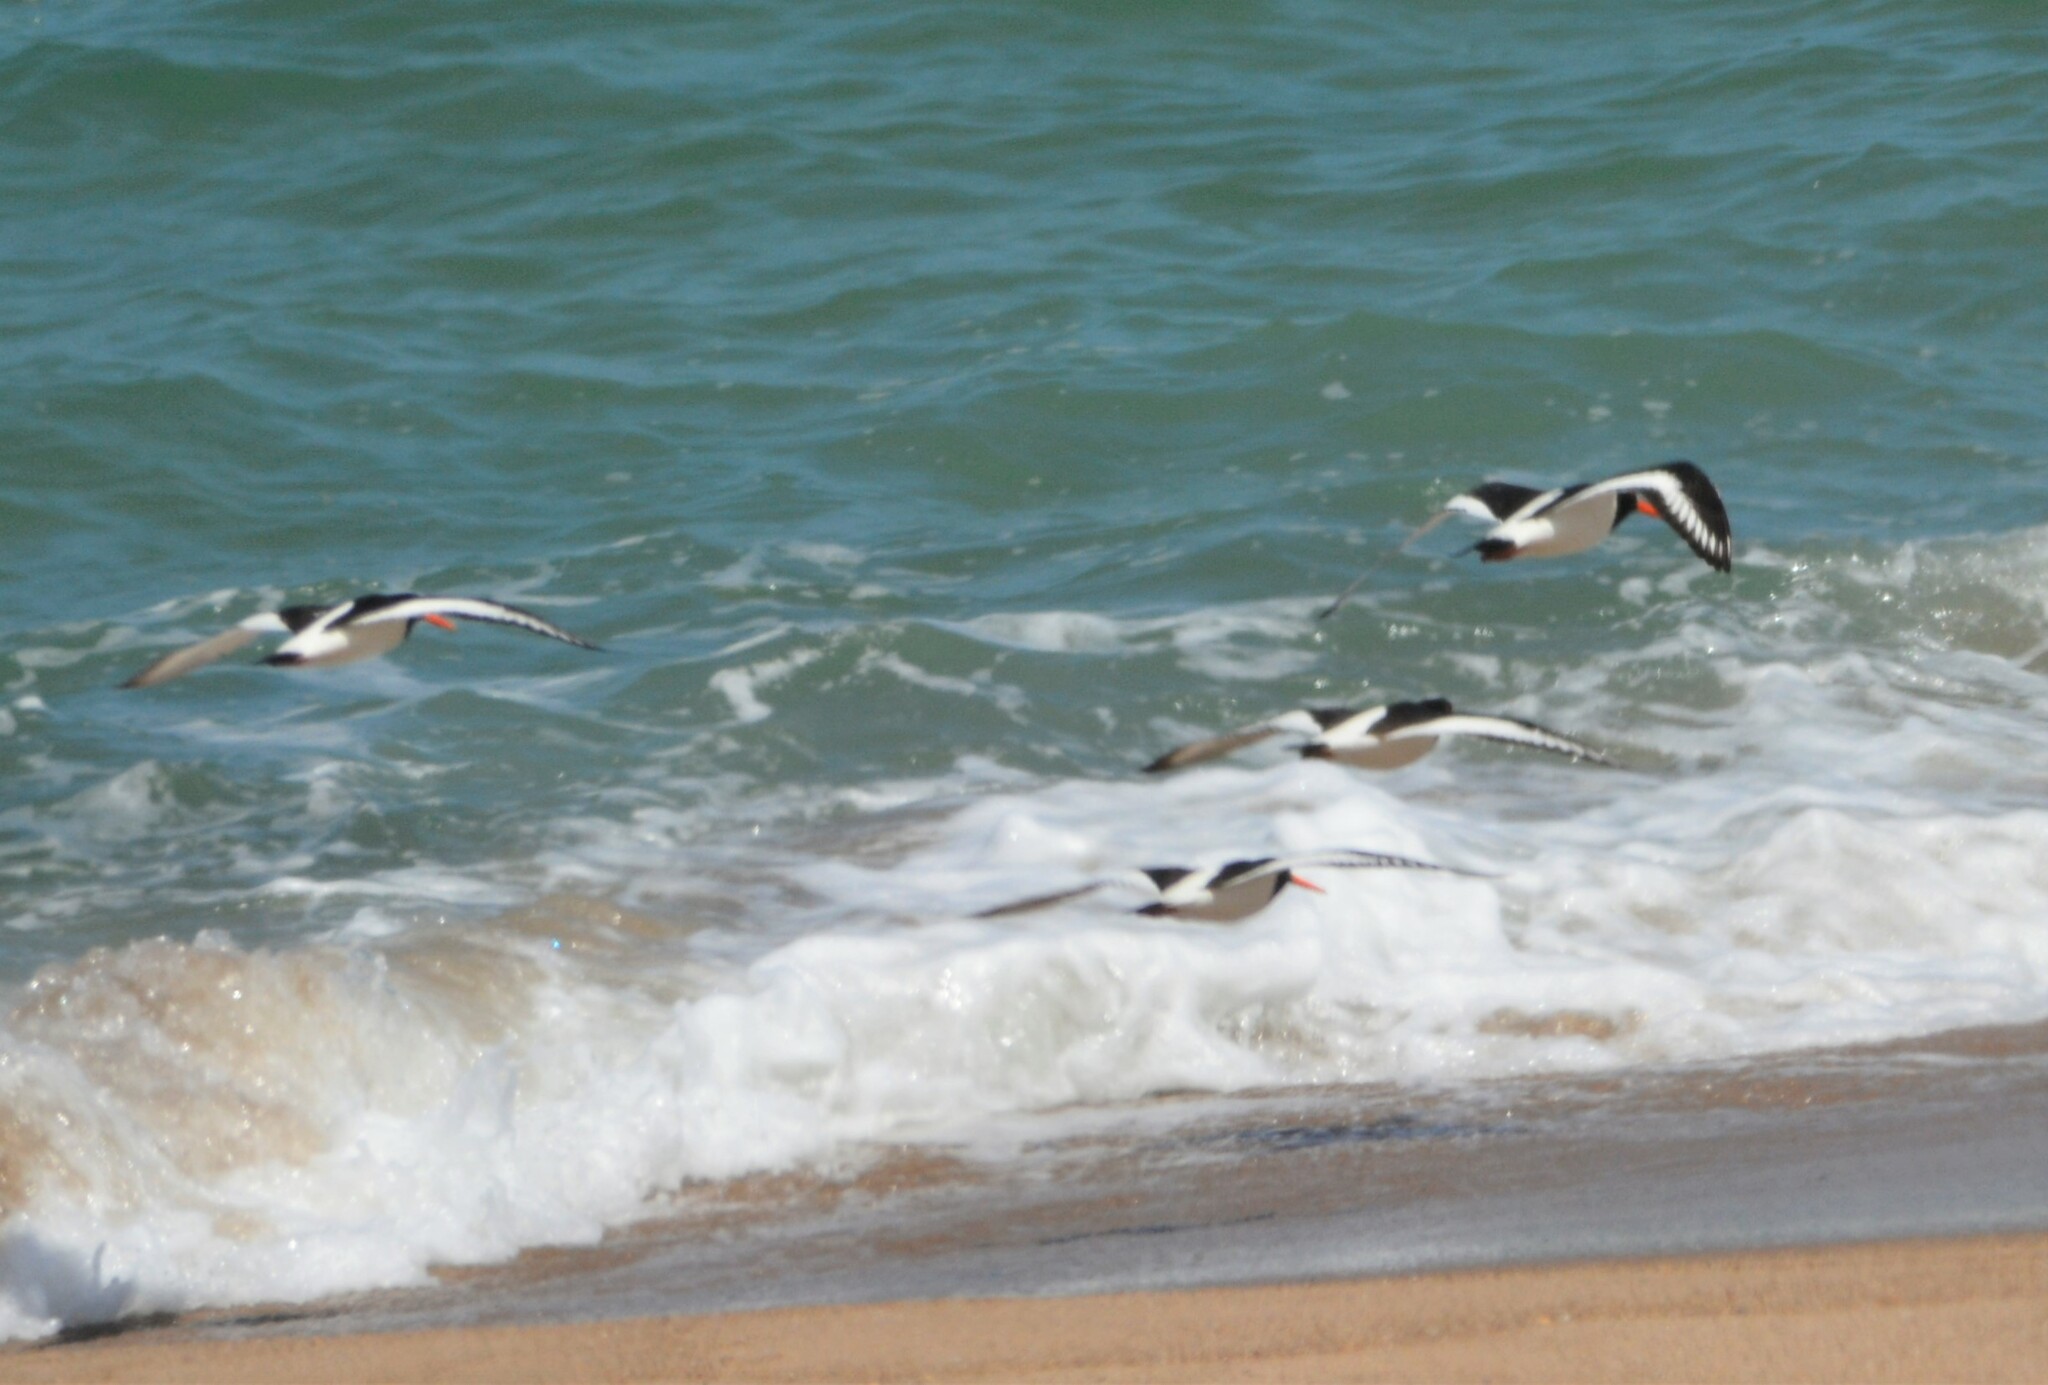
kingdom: Animalia
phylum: Chordata
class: Aves
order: Charadriiformes
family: Haematopodidae
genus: Haematopus
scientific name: Haematopus ostralegus
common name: Eurasian oystercatcher
